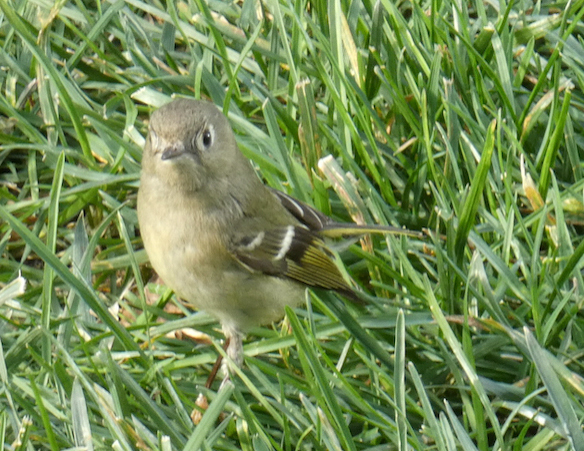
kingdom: Animalia
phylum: Chordata
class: Aves
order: Passeriformes
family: Regulidae
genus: Regulus
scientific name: Regulus calendula
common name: Ruby-crowned kinglet
